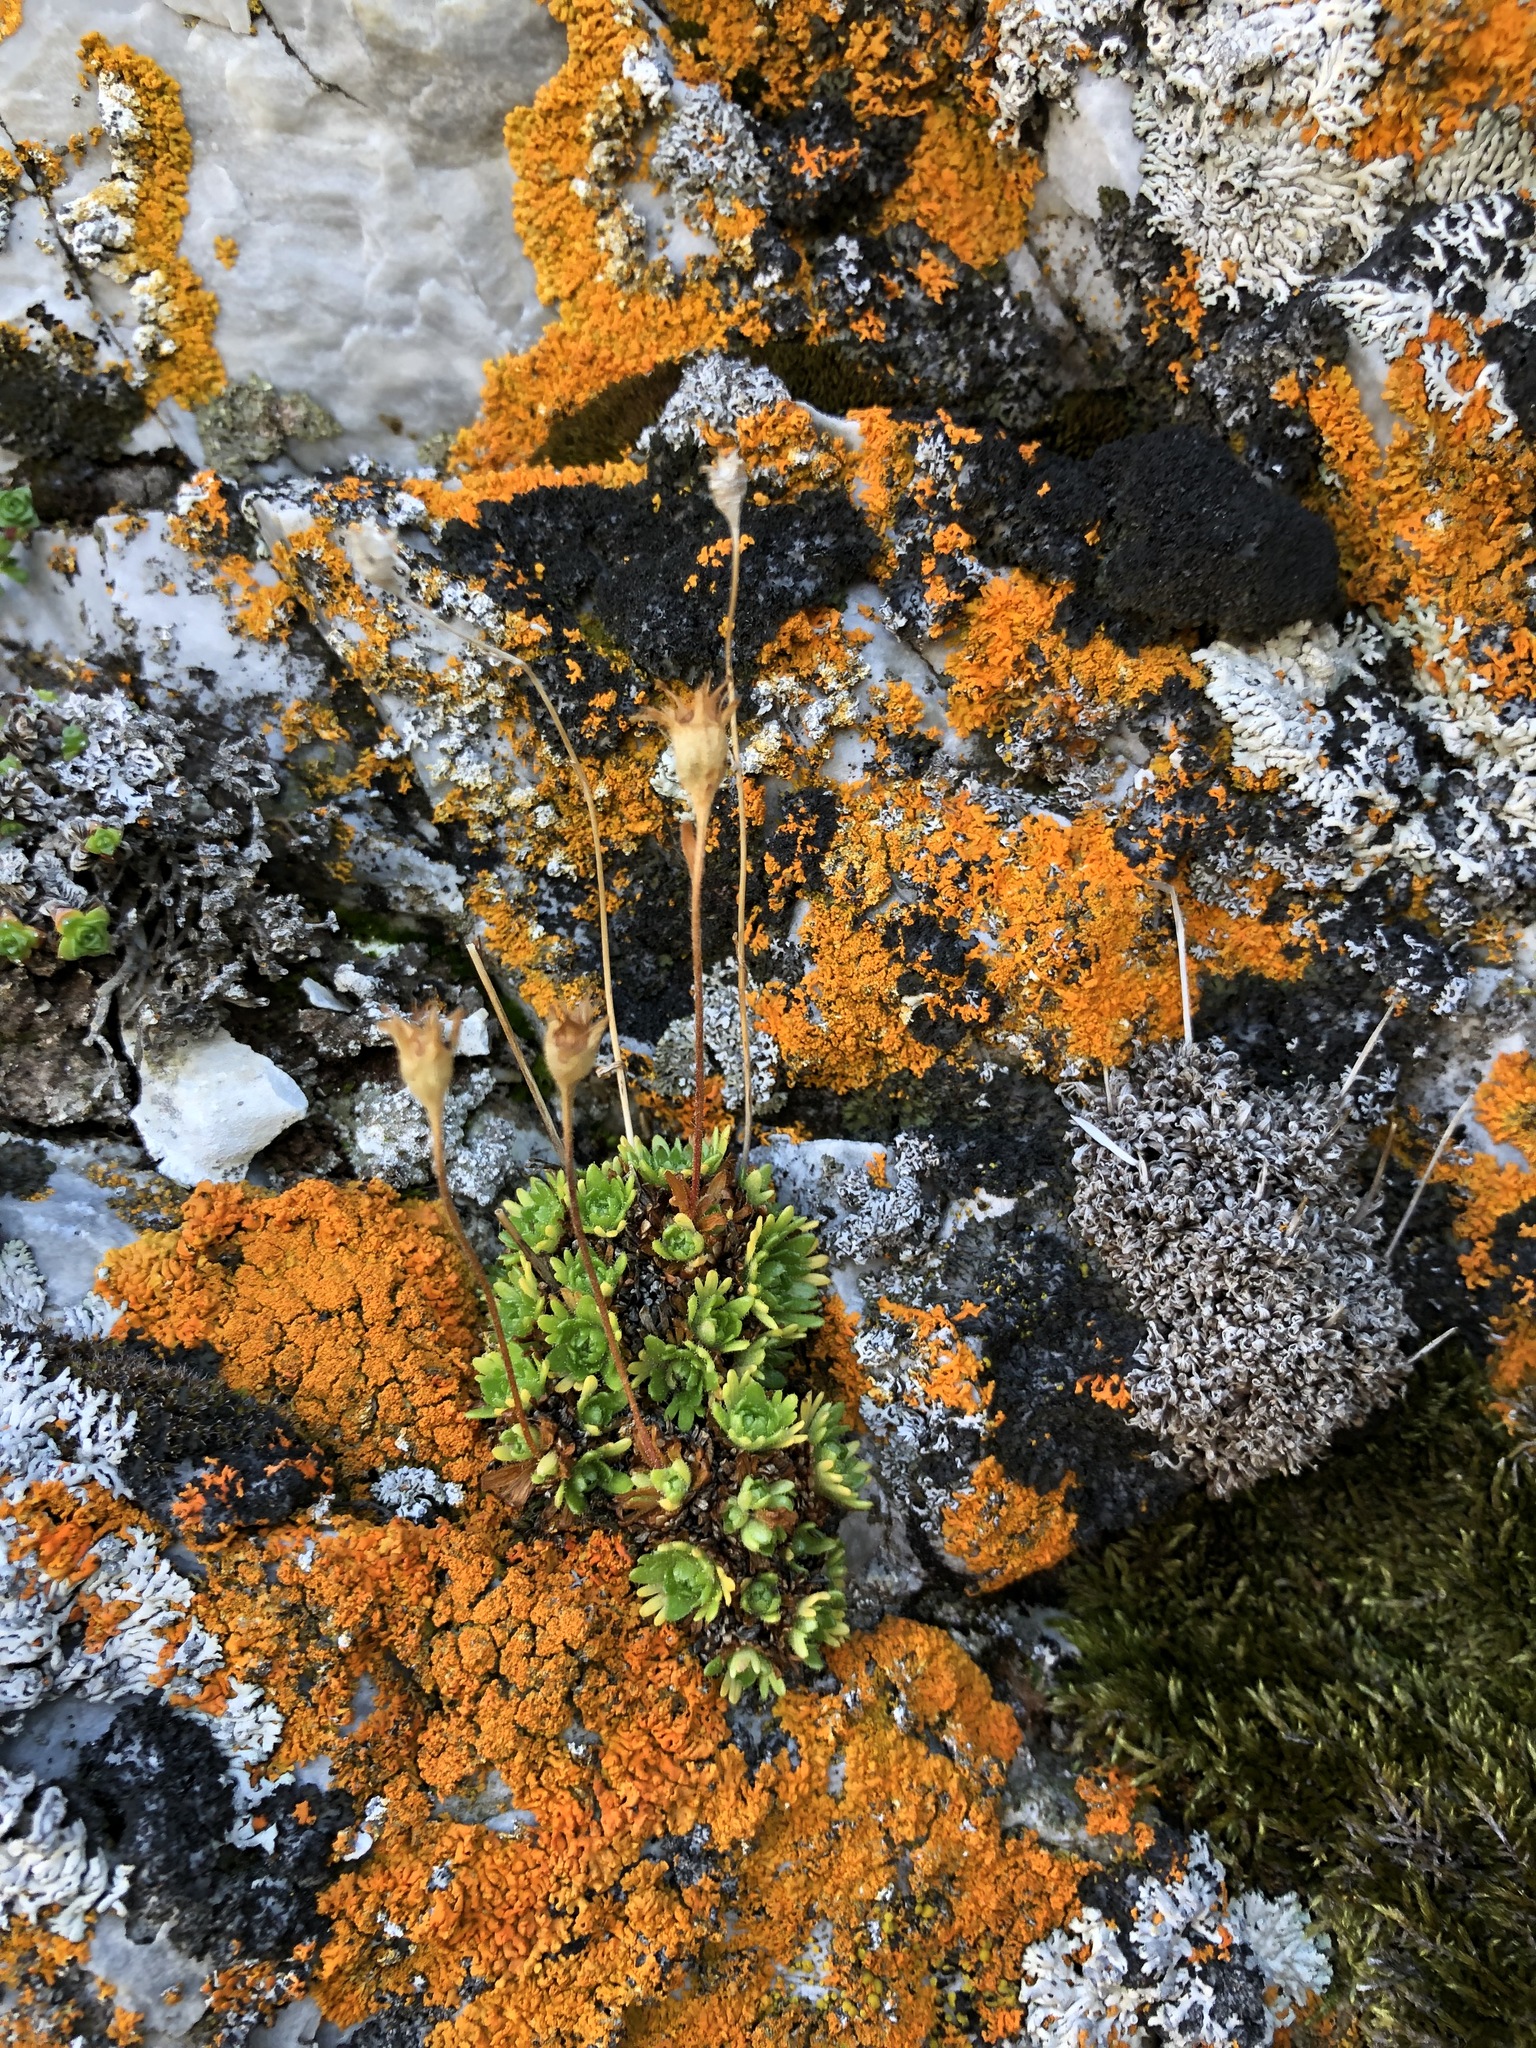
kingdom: Plantae
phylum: Tracheophyta
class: Magnoliopsida
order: Saxifragales
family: Saxifragaceae
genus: Saxifraga
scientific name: Saxifraga cespitosa
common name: Tufted saxifrage
